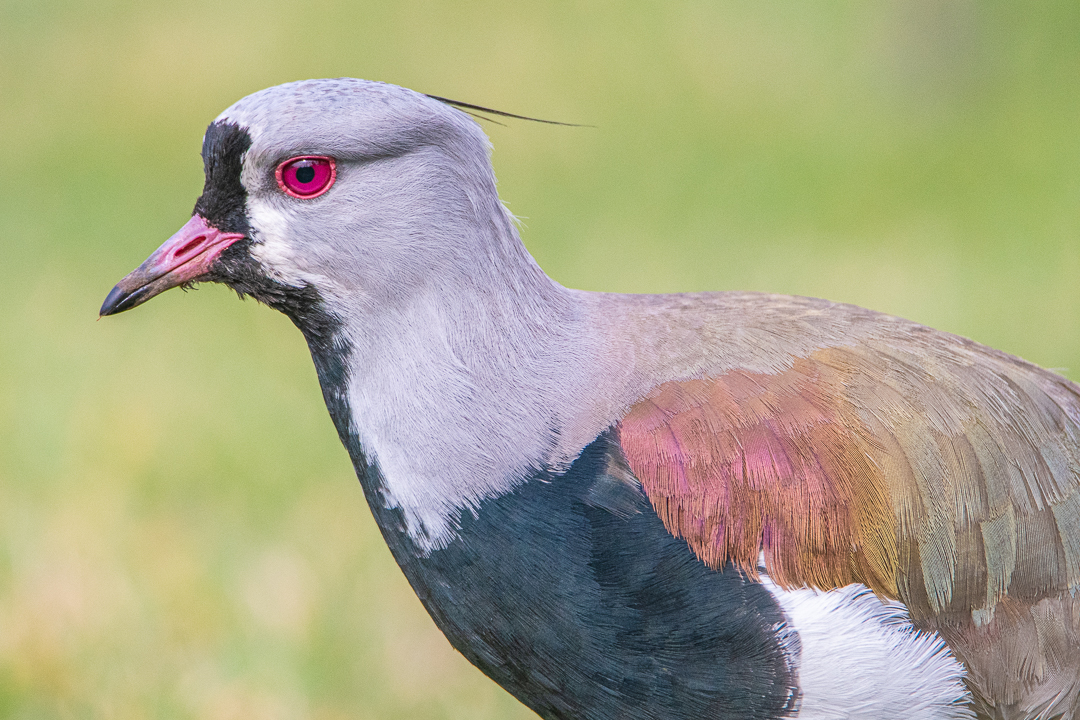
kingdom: Animalia
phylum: Chordata
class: Aves
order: Charadriiformes
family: Charadriidae
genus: Vanellus
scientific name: Vanellus chilensis
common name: Southern lapwing
